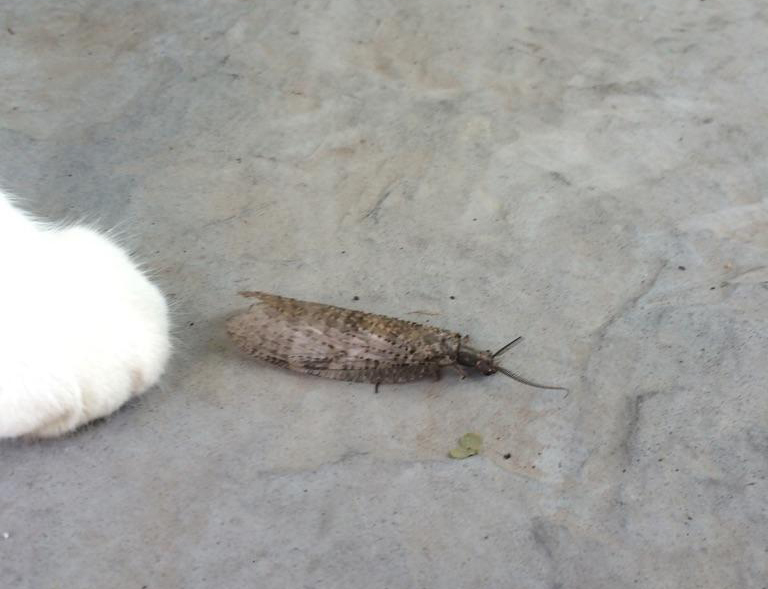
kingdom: Animalia
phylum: Arthropoda
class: Insecta
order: Megaloptera
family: Corydalidae
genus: Chauliodes
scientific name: Chauliodes pectinicornis
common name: Summer fishfly
